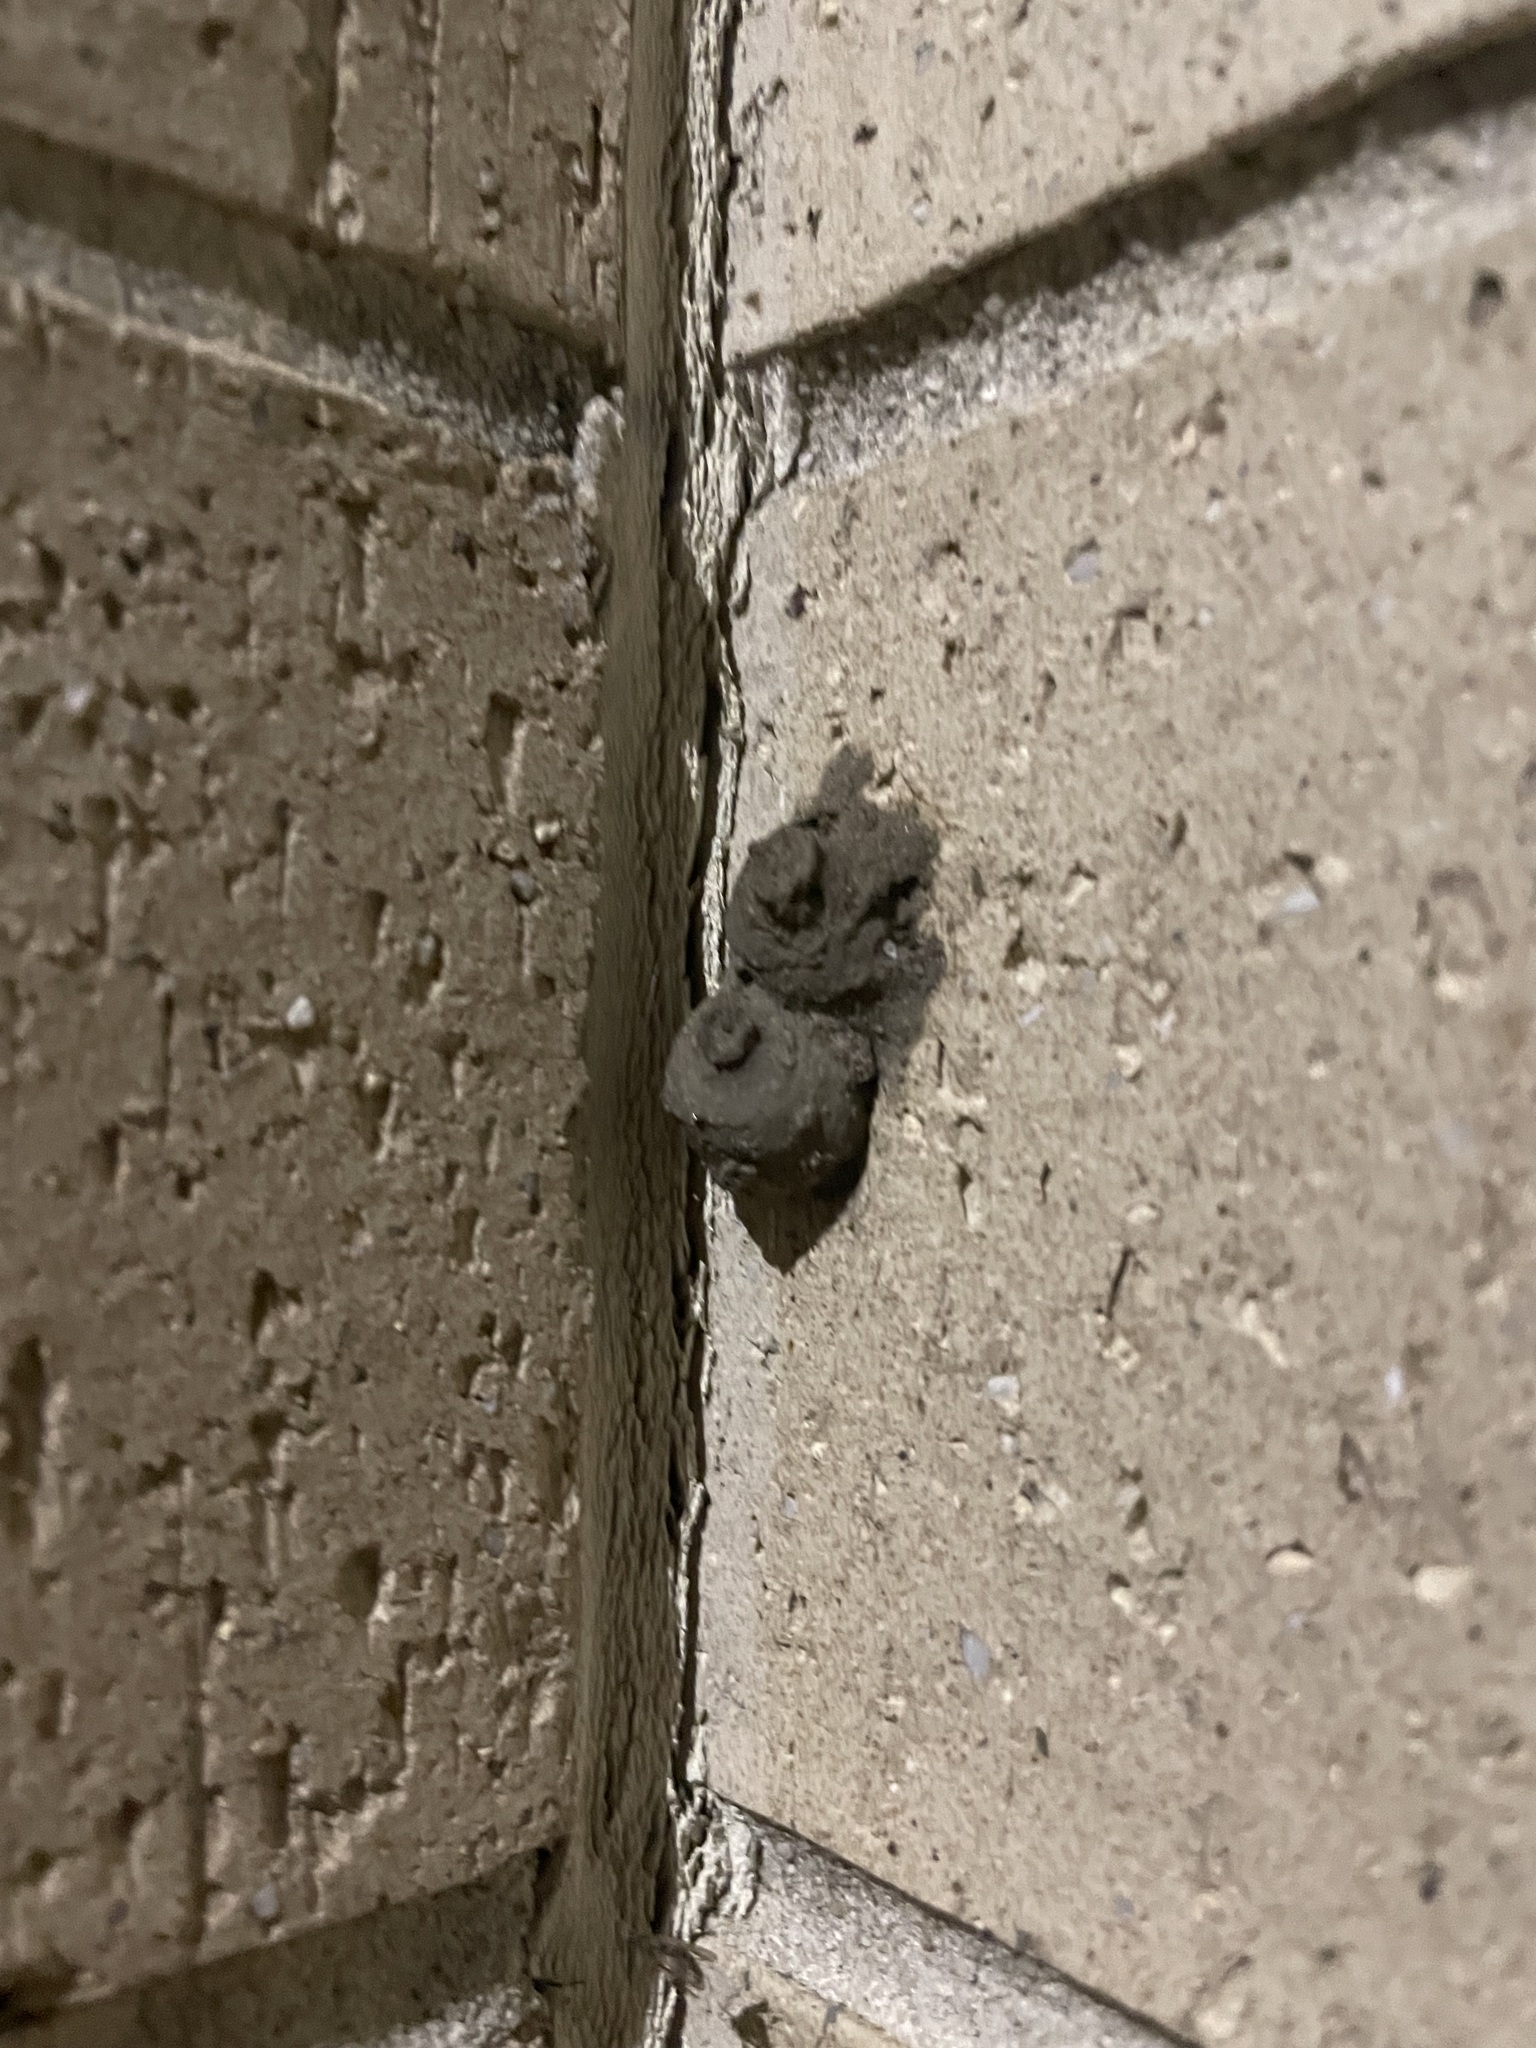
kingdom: Animalia
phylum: Arthropoda
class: Insecta
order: Hymenoptera
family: Eumenidae
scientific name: Eumenidae
